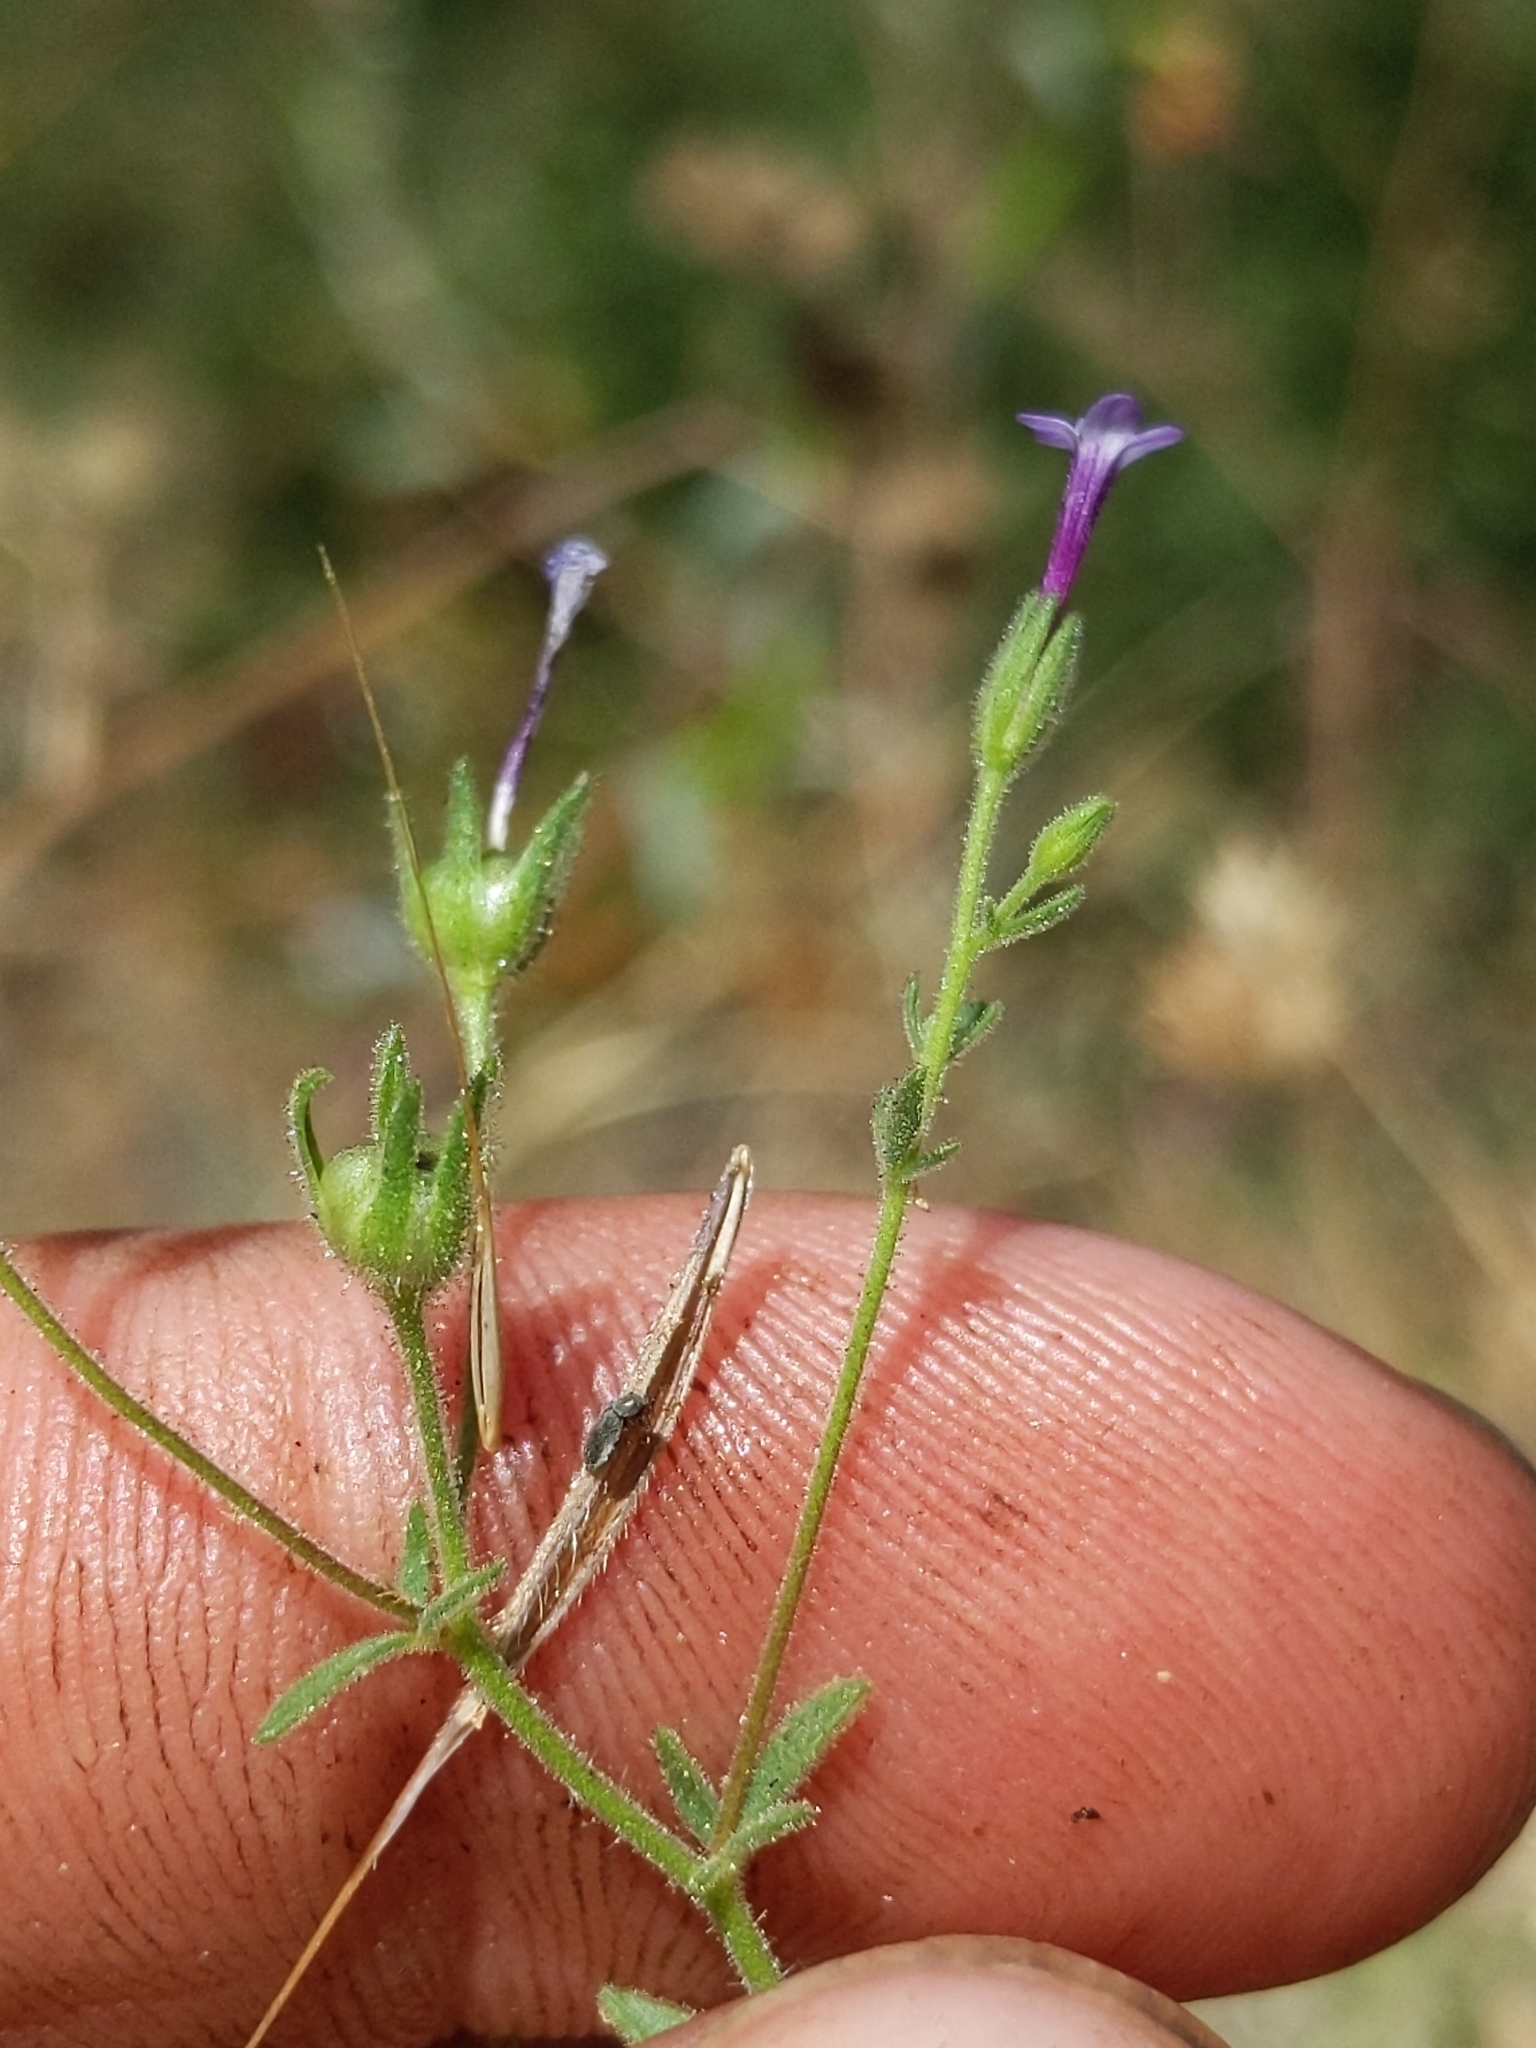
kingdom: Plantae
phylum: Tracheophyta
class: Magnoliopsida
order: Ericales
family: Polemoniaceae
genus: Allophyllum
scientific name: Allophyllum divaricatum
